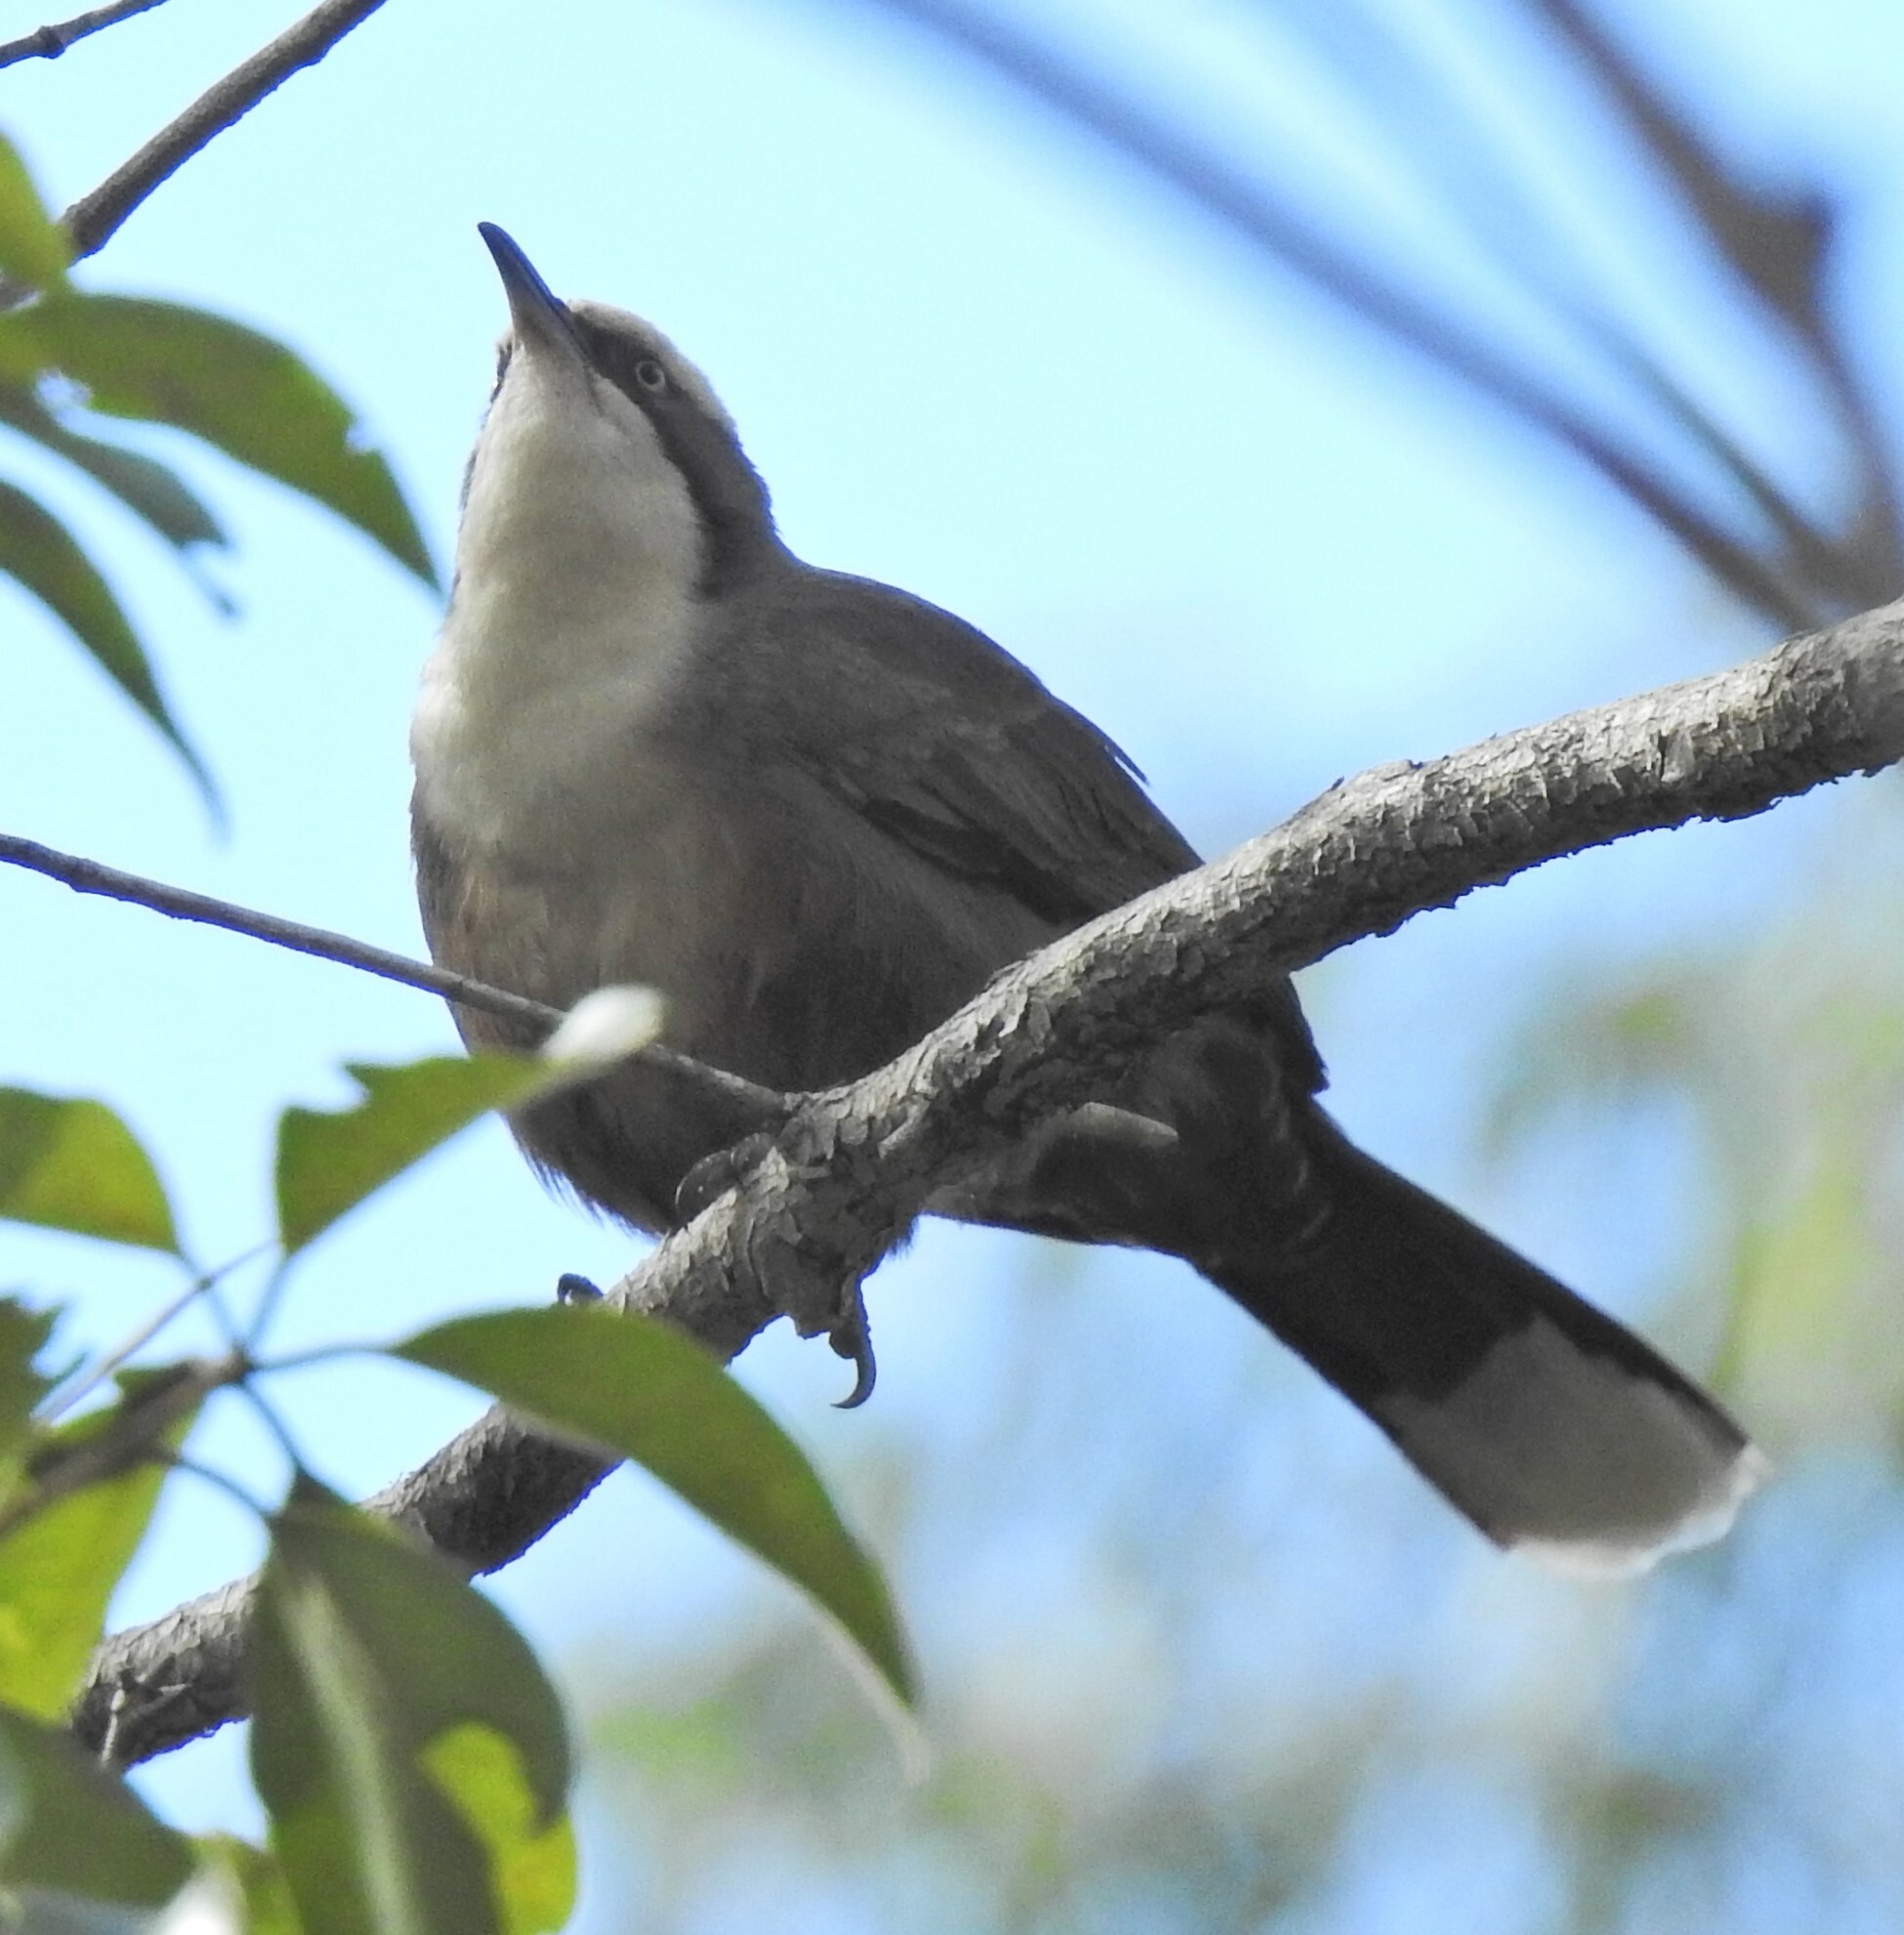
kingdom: Animalia
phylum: Chordata
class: Aves
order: Passeriformes
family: Pomatostomidae
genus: Pomatostomus
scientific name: Pomatostomus temporalis
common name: Grey-crowned babbler
